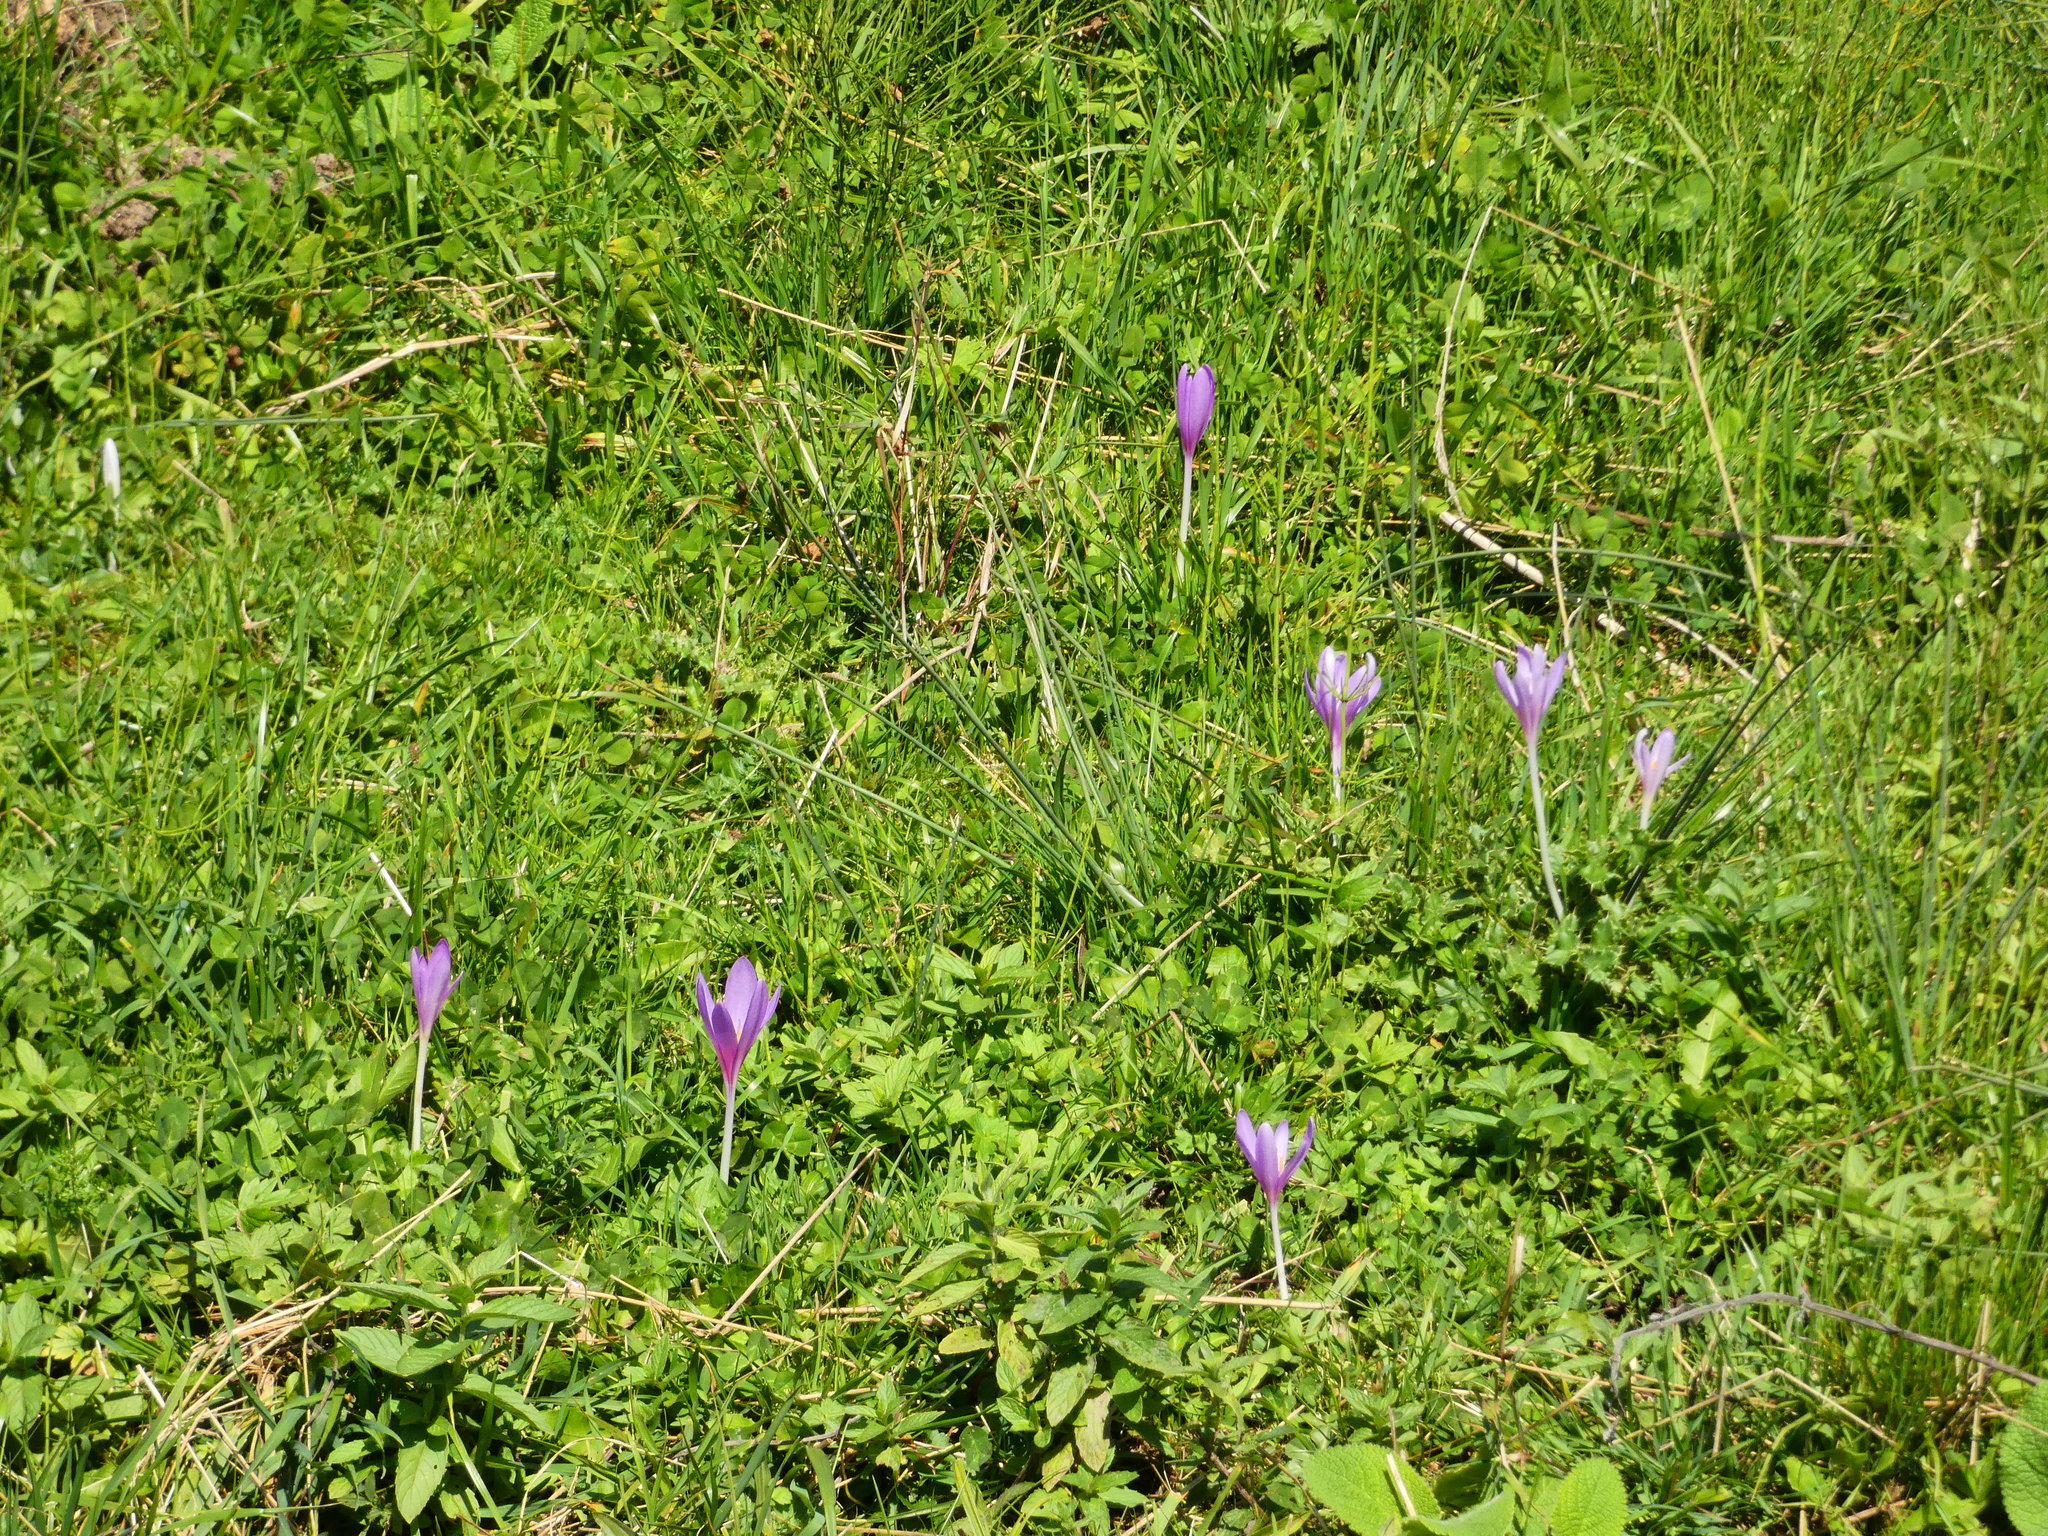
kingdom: Plantae
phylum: Tracheophyta
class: Liliopsida
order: Liliales
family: Colchicaceae
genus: Colchicum
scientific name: Colchicum autumnale
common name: Autumn crocus
